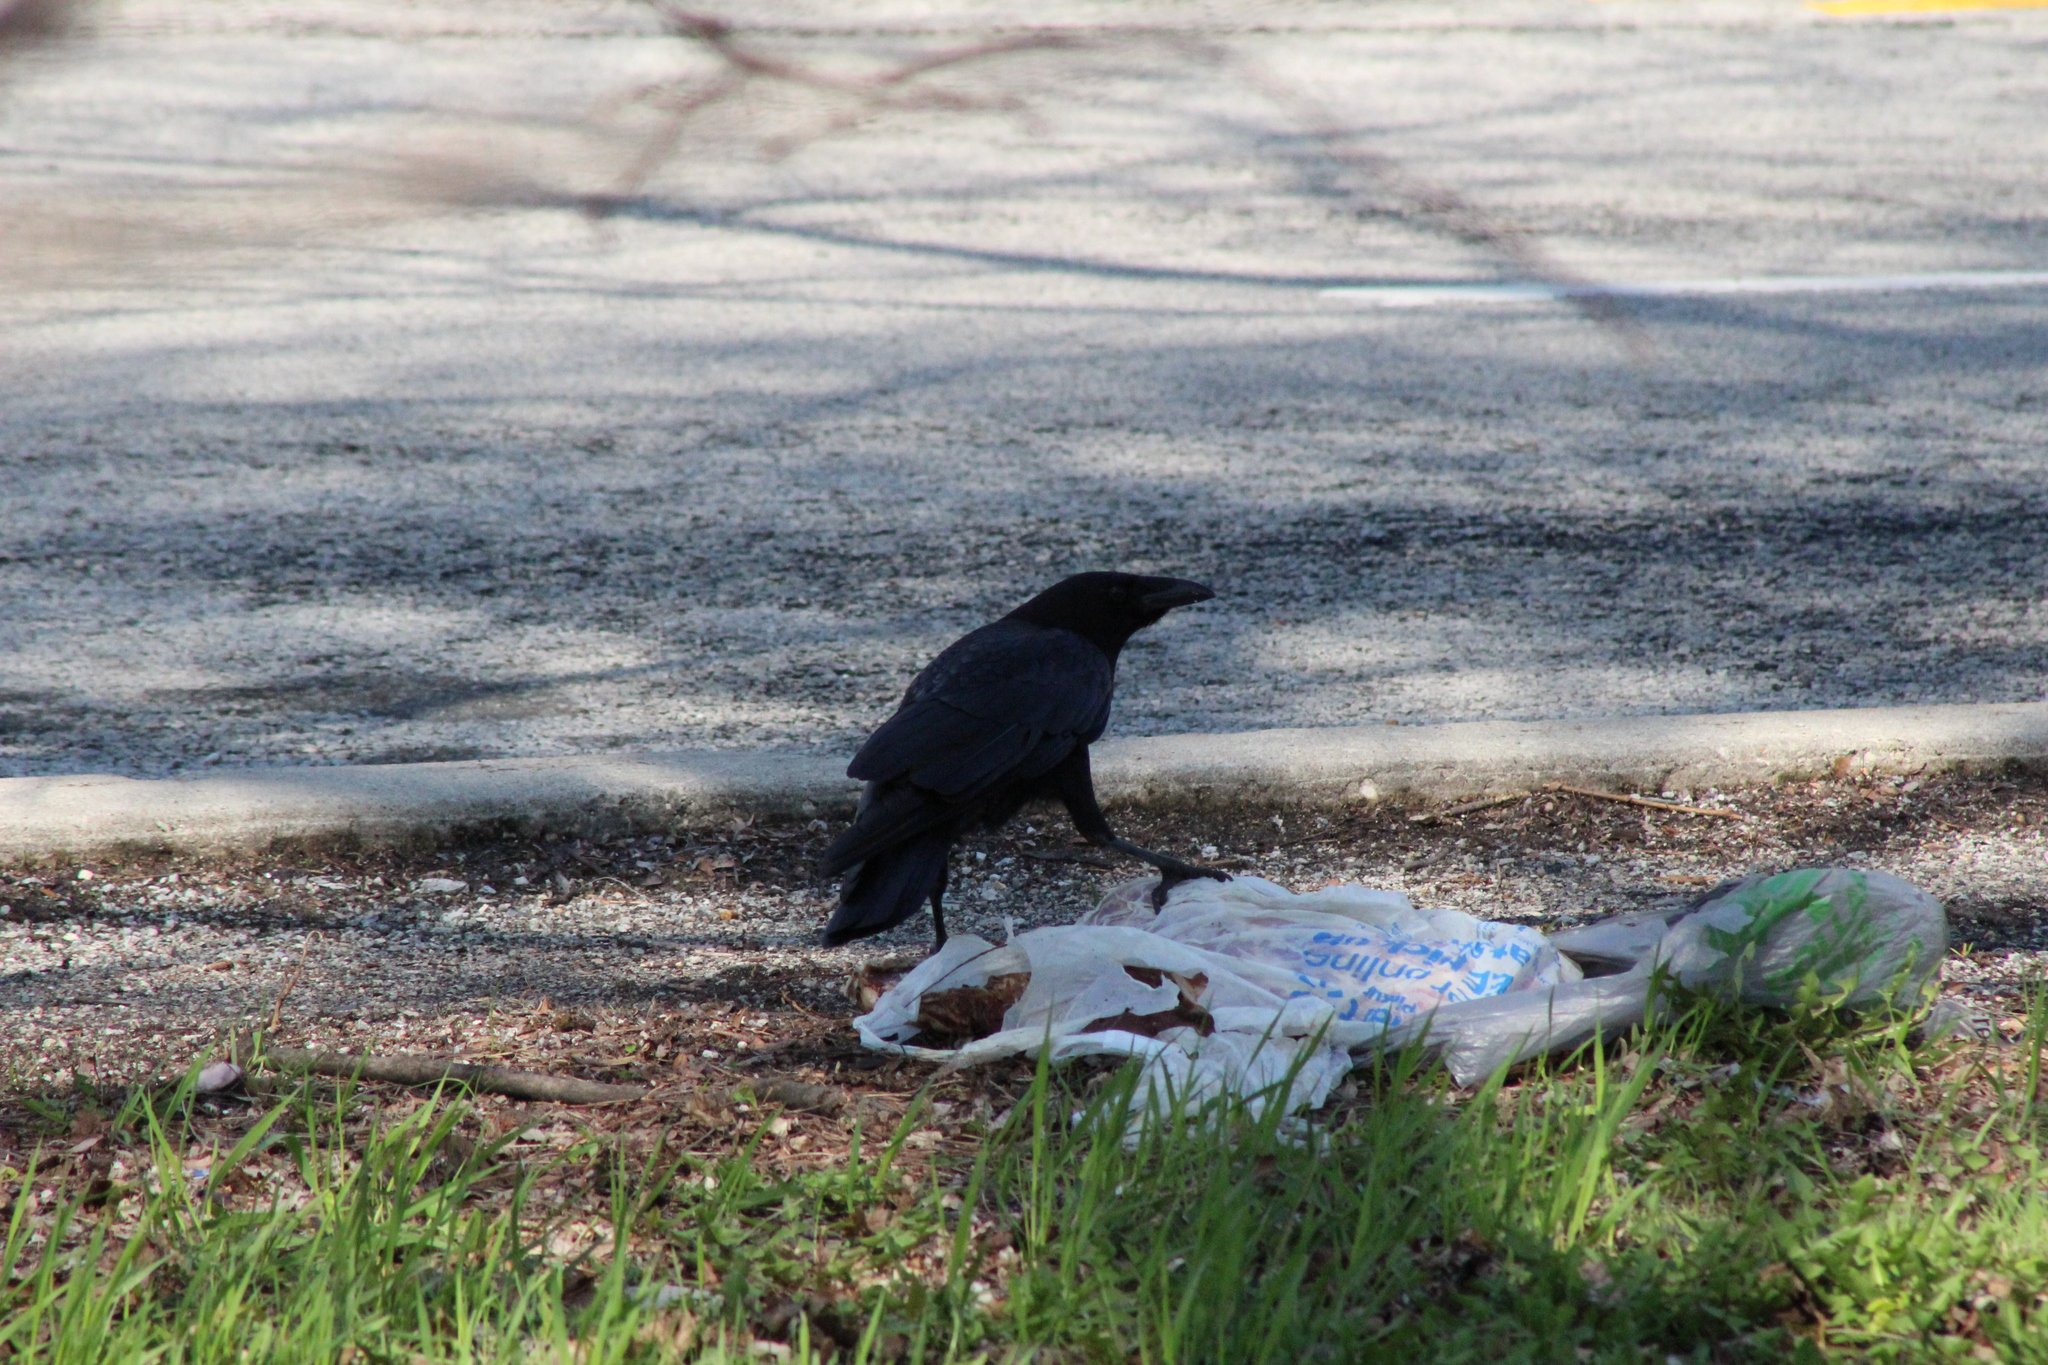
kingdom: Animalia
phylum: Chordata
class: Aves
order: Passeriformes
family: Corvidae
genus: Corvus
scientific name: Corvus brachyrhynchos
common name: American crow
